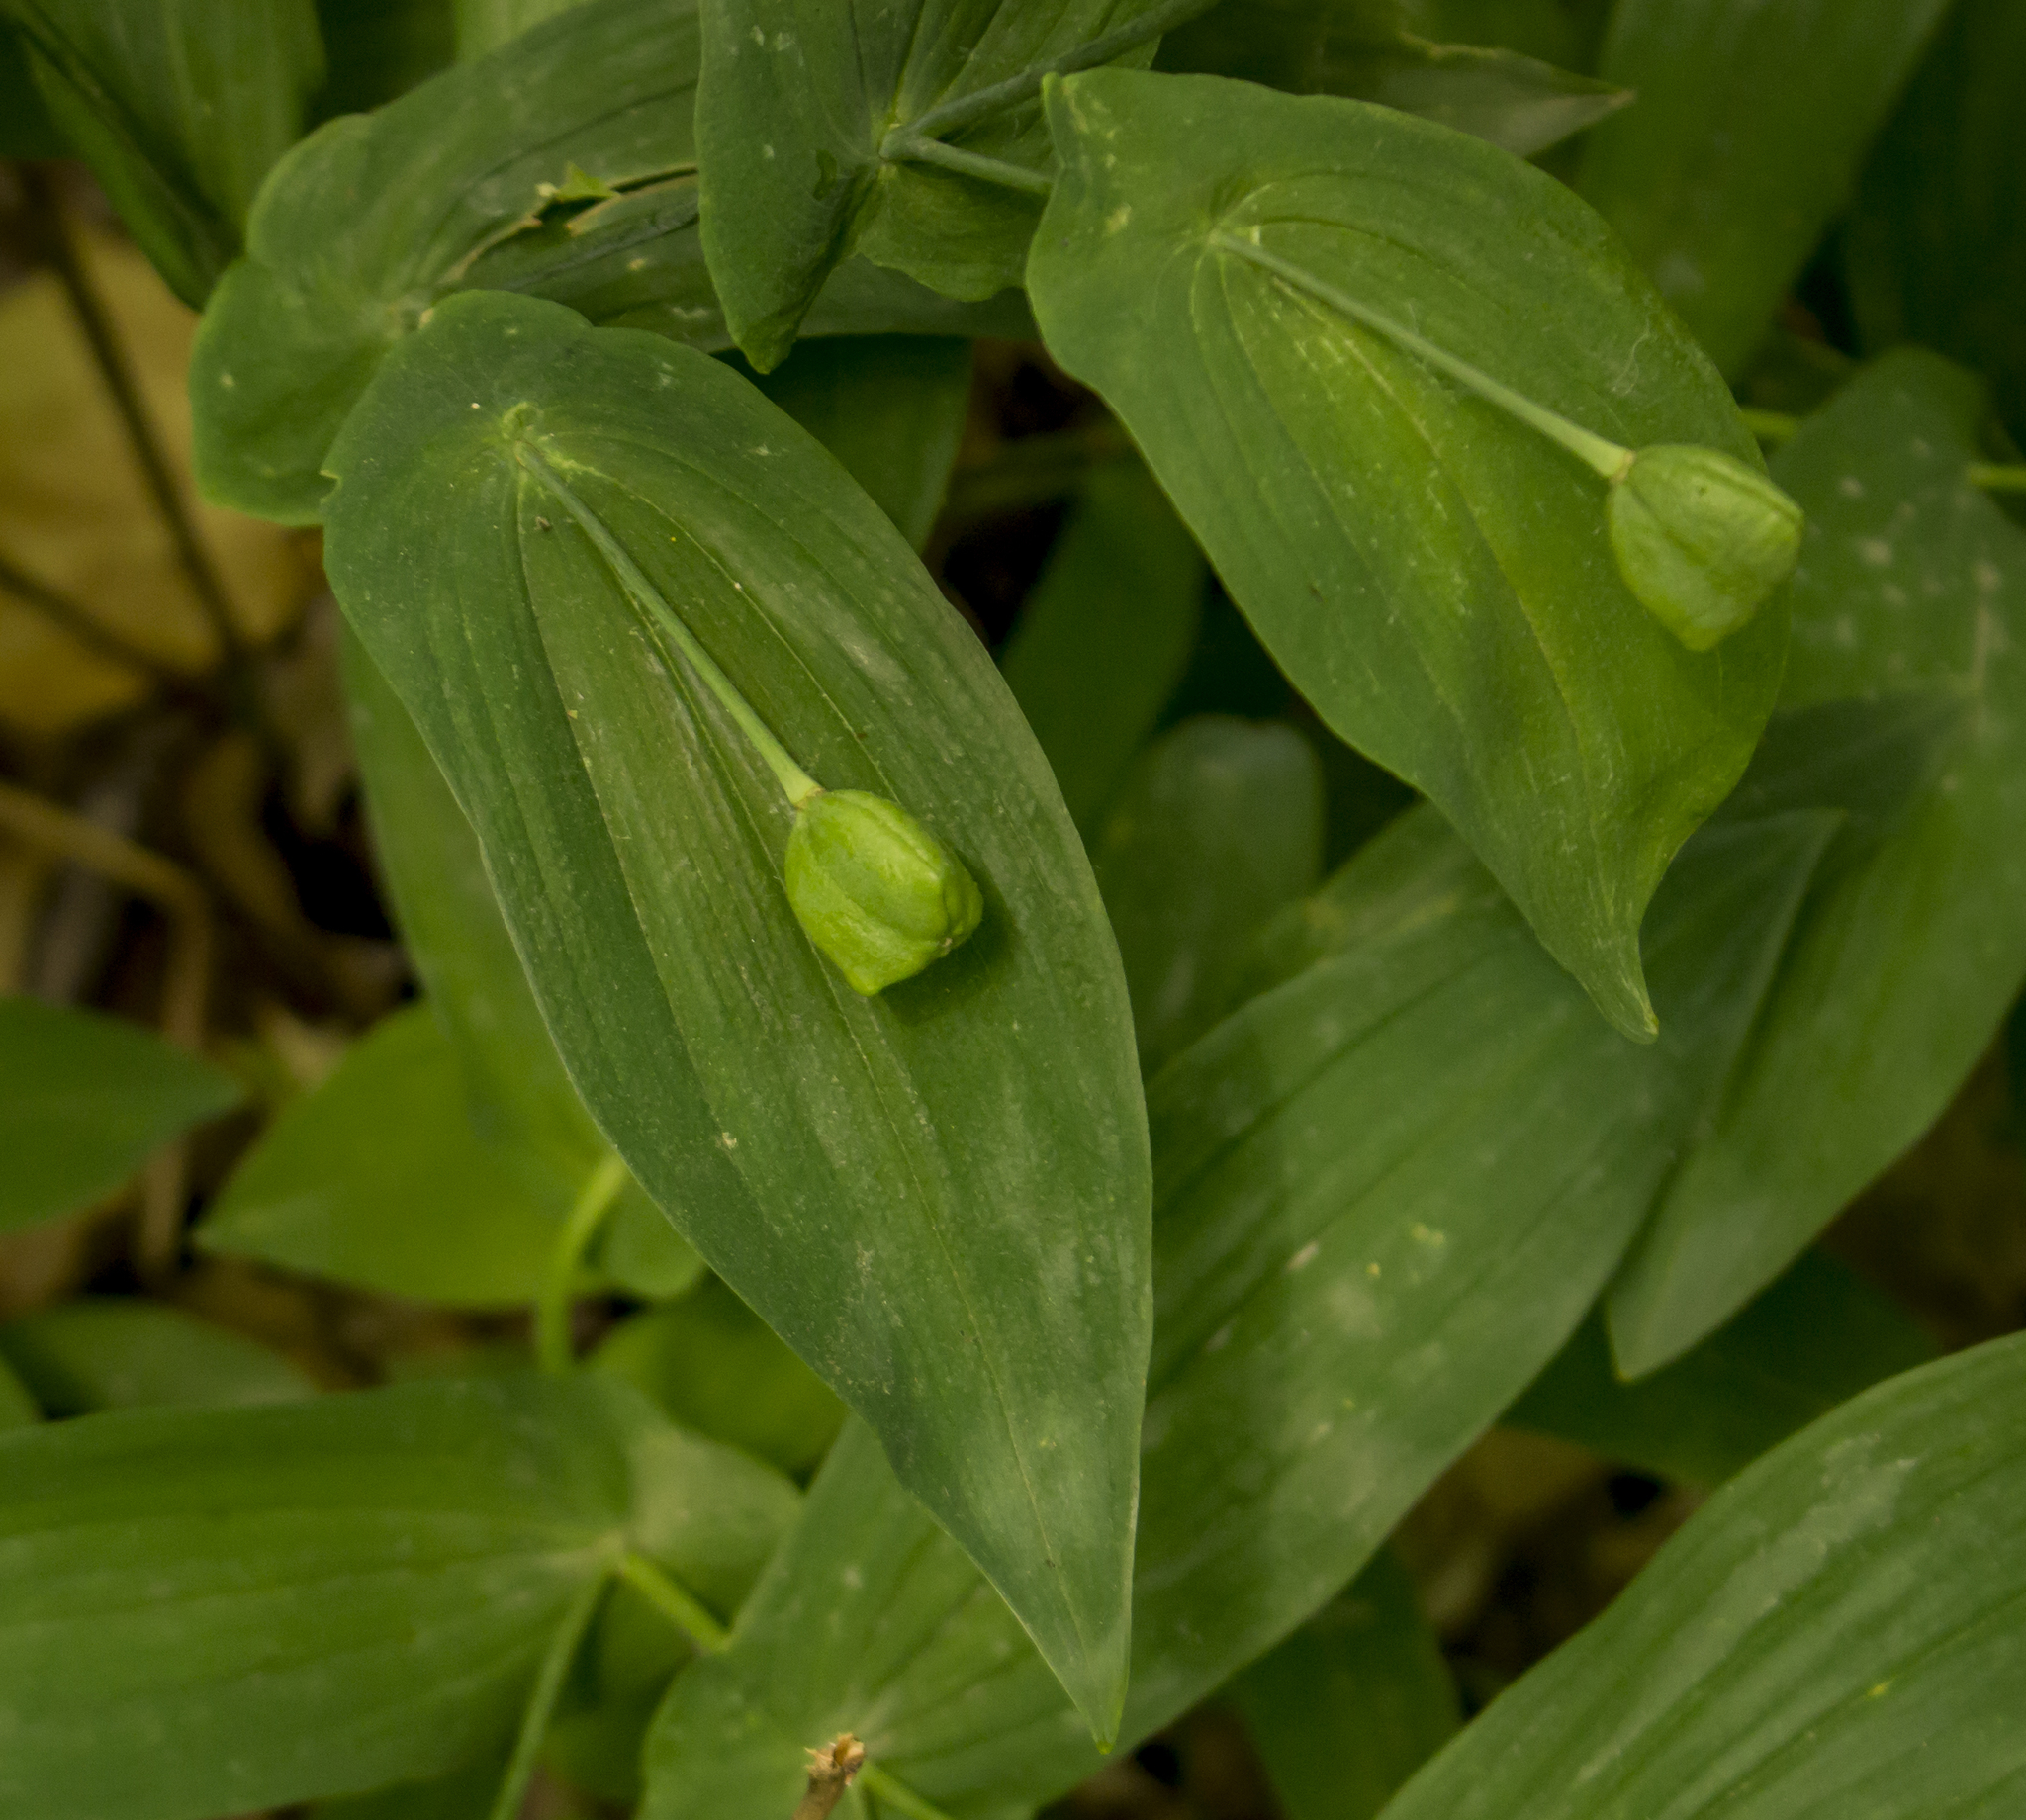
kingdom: Plantae
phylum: Tracheophyta
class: Liliopsida
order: Liliales
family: Colchicaceae
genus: Uvularia
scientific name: Uvularia grandiflora
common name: Bellwort
